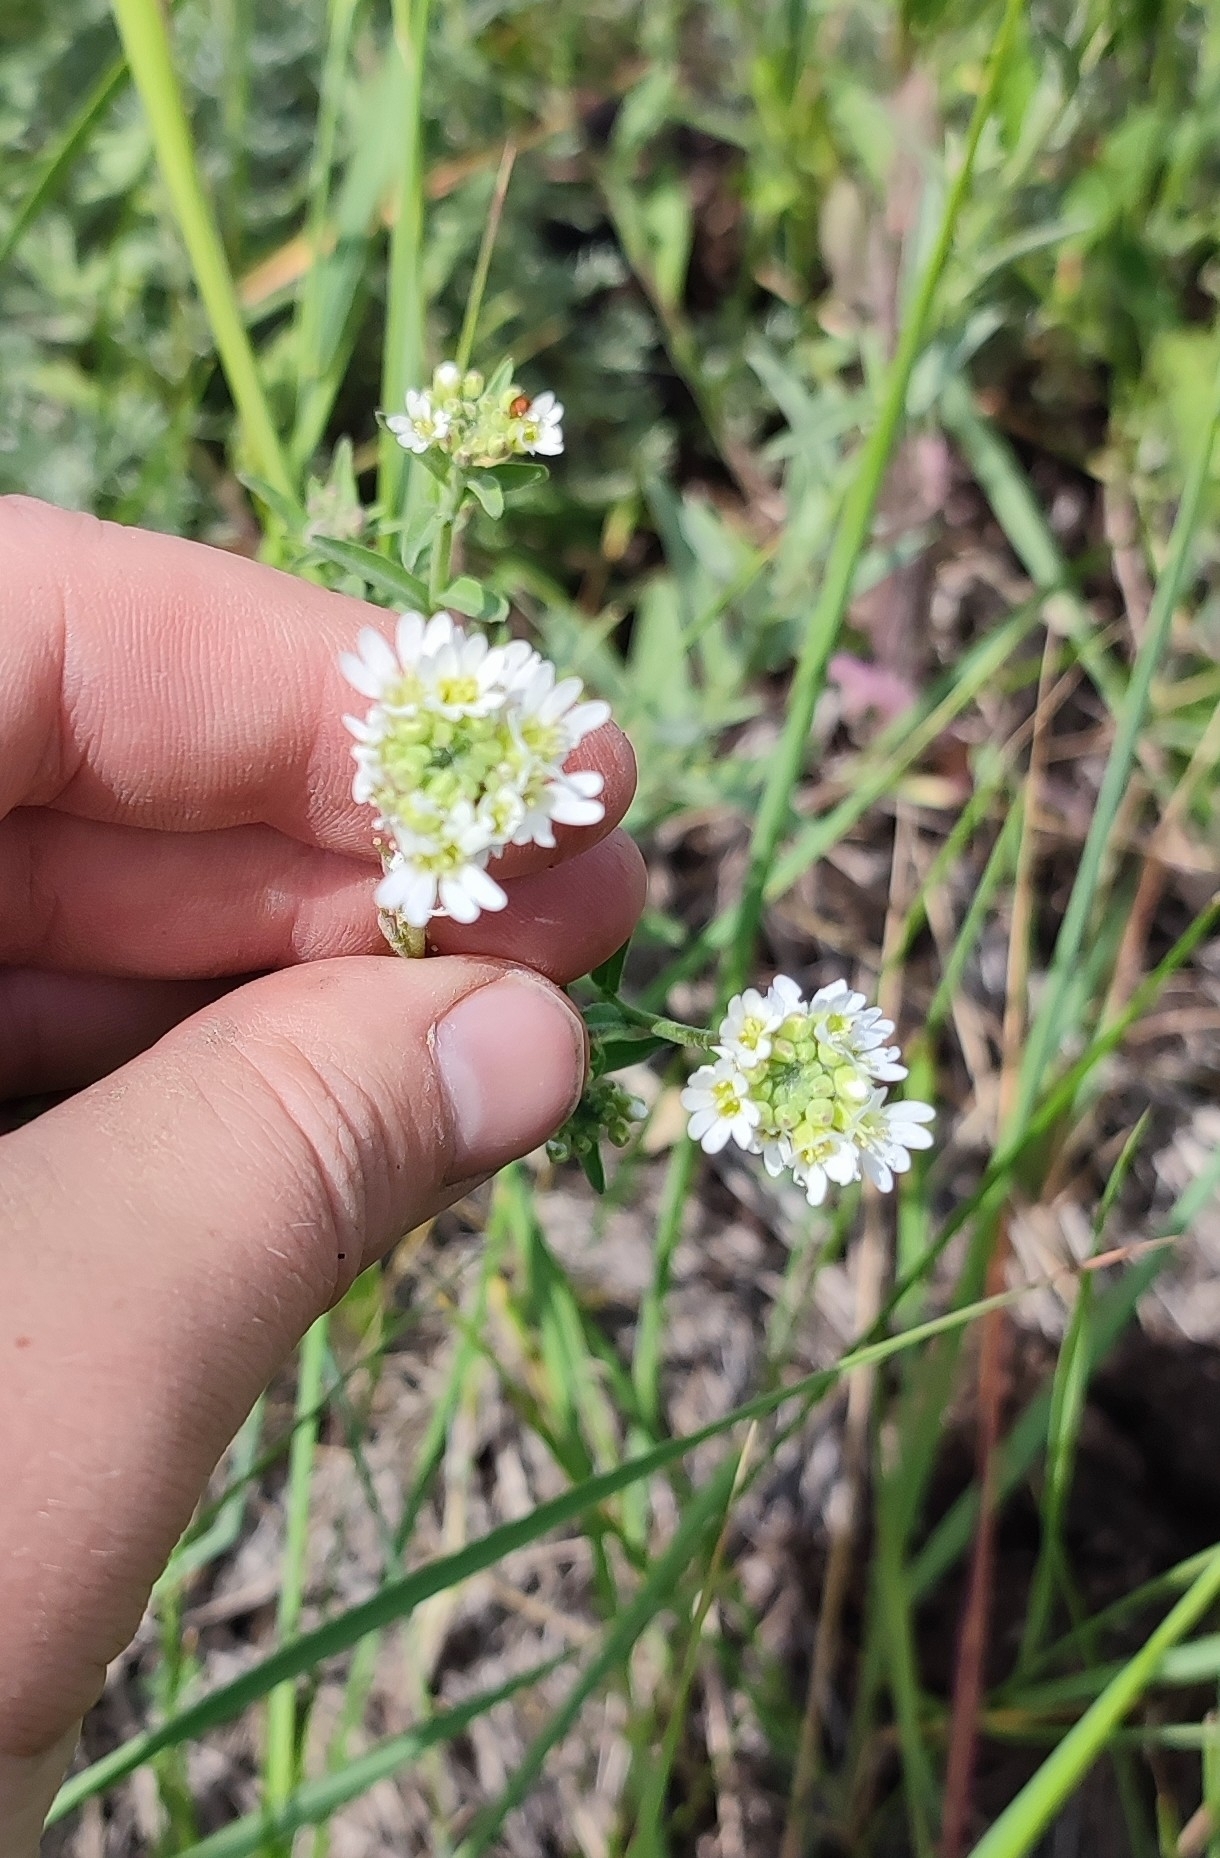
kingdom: Plantae
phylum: Tracheophyta
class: Magnoliopsida
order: Brassicales
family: Brassicaceae
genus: Berteroa
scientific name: Berteroa incana
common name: Hoary alison
